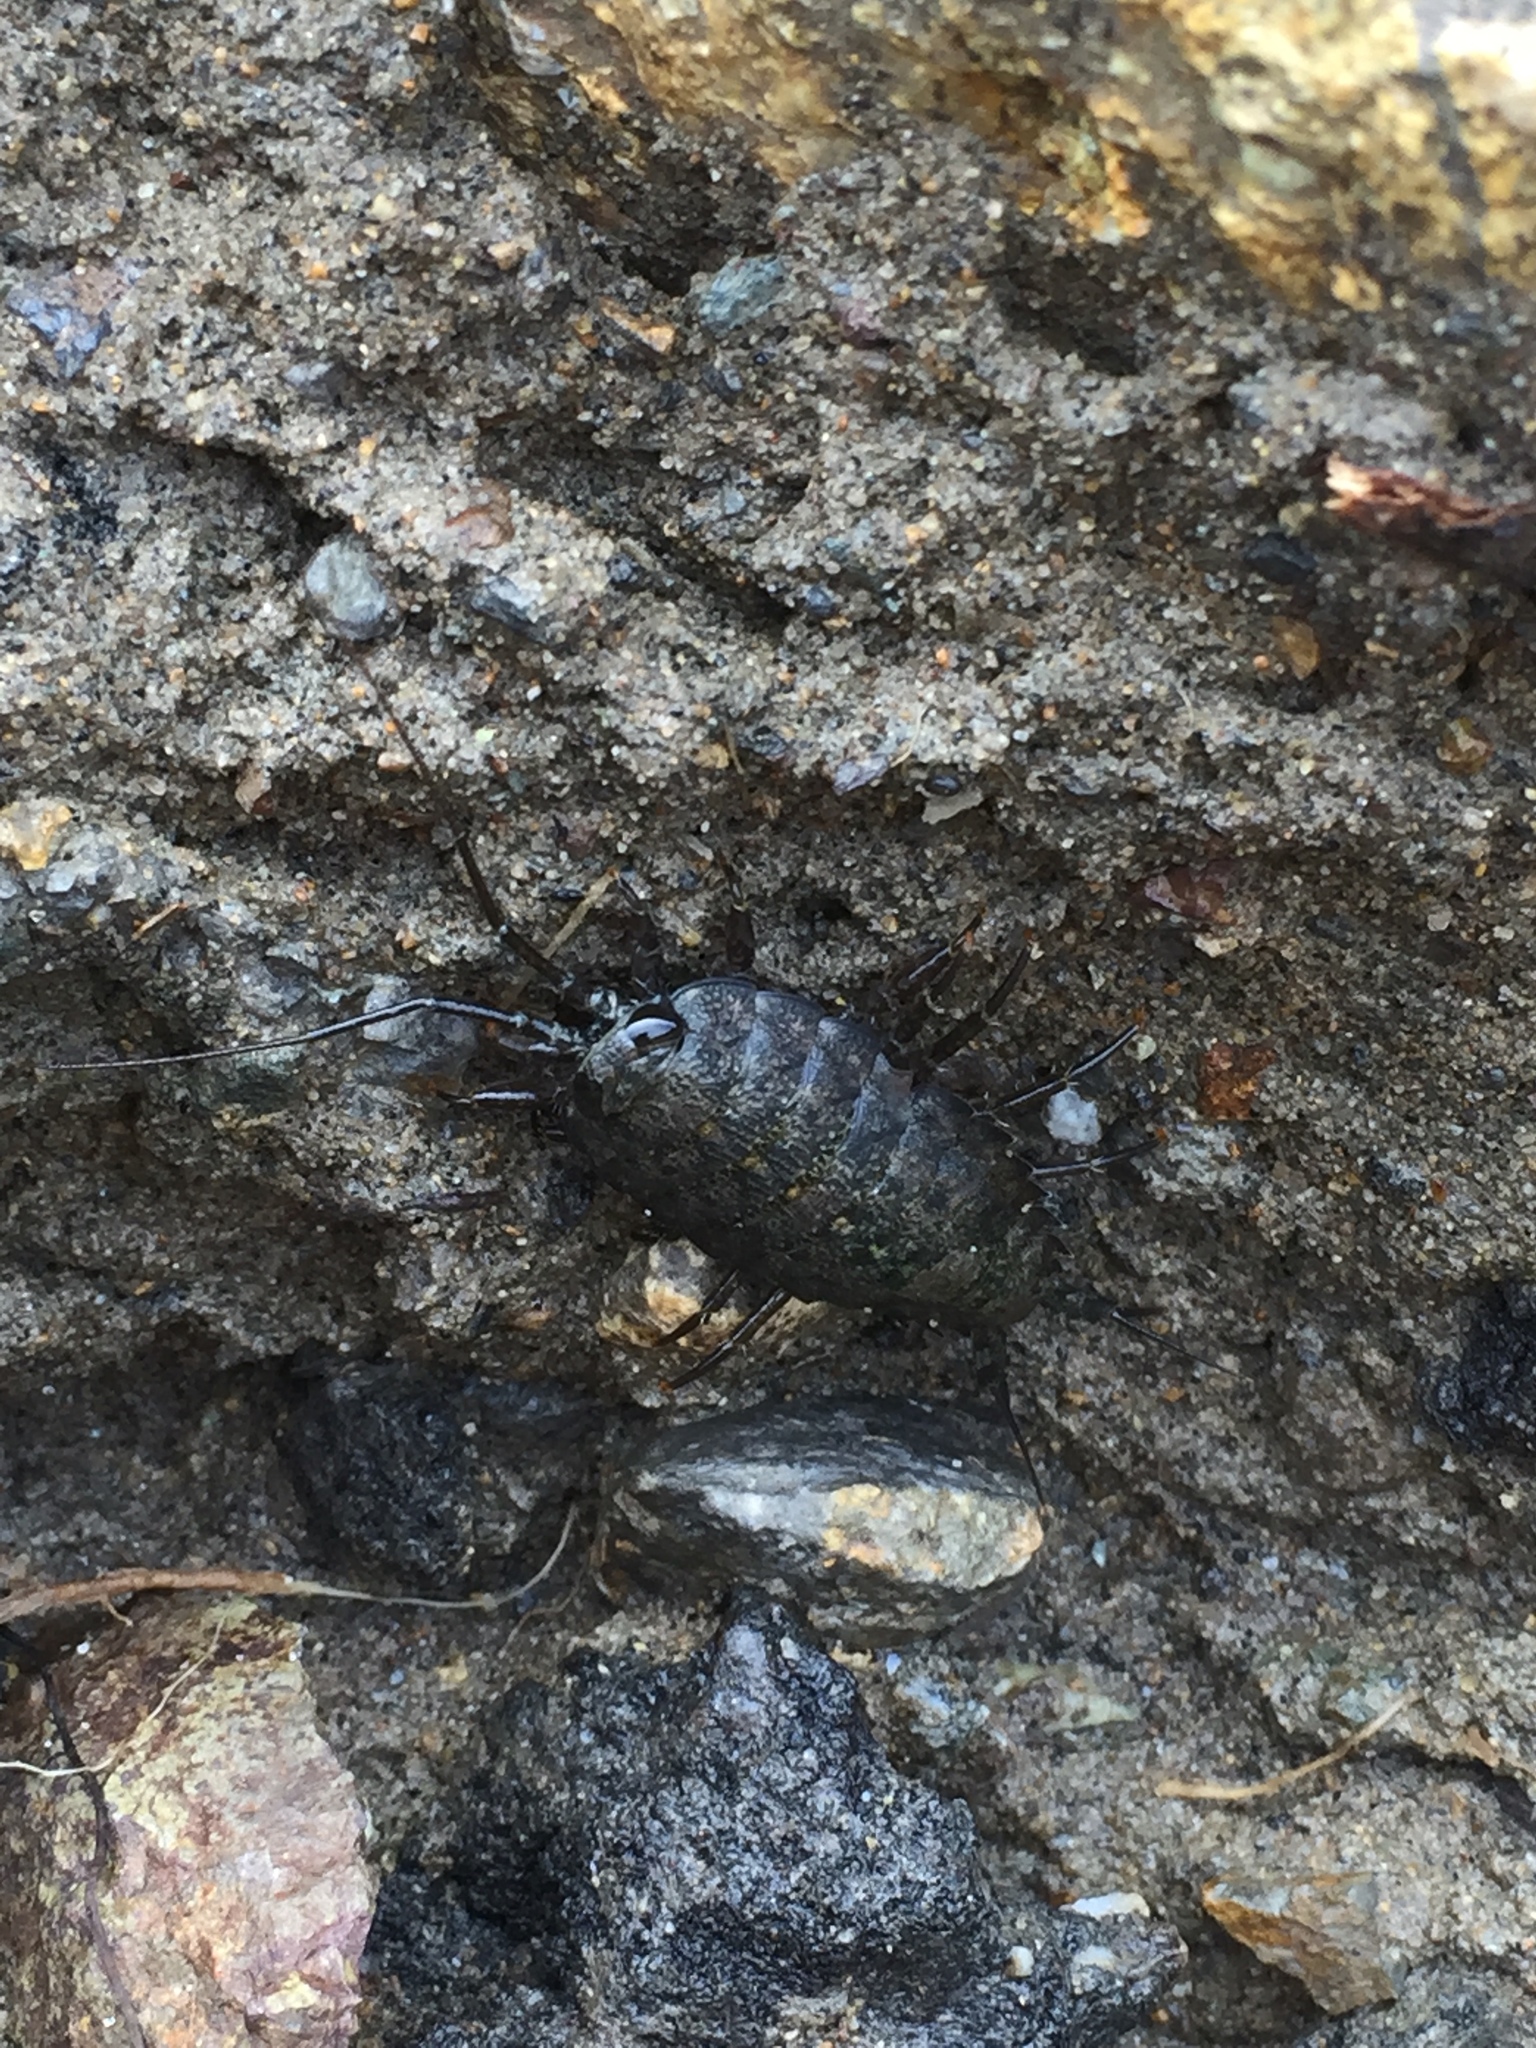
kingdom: Animalia
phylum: Arthropoda
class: Malacostraca
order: Isopoda
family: Ligiidae
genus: Ligia
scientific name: Ligia occidentalis
